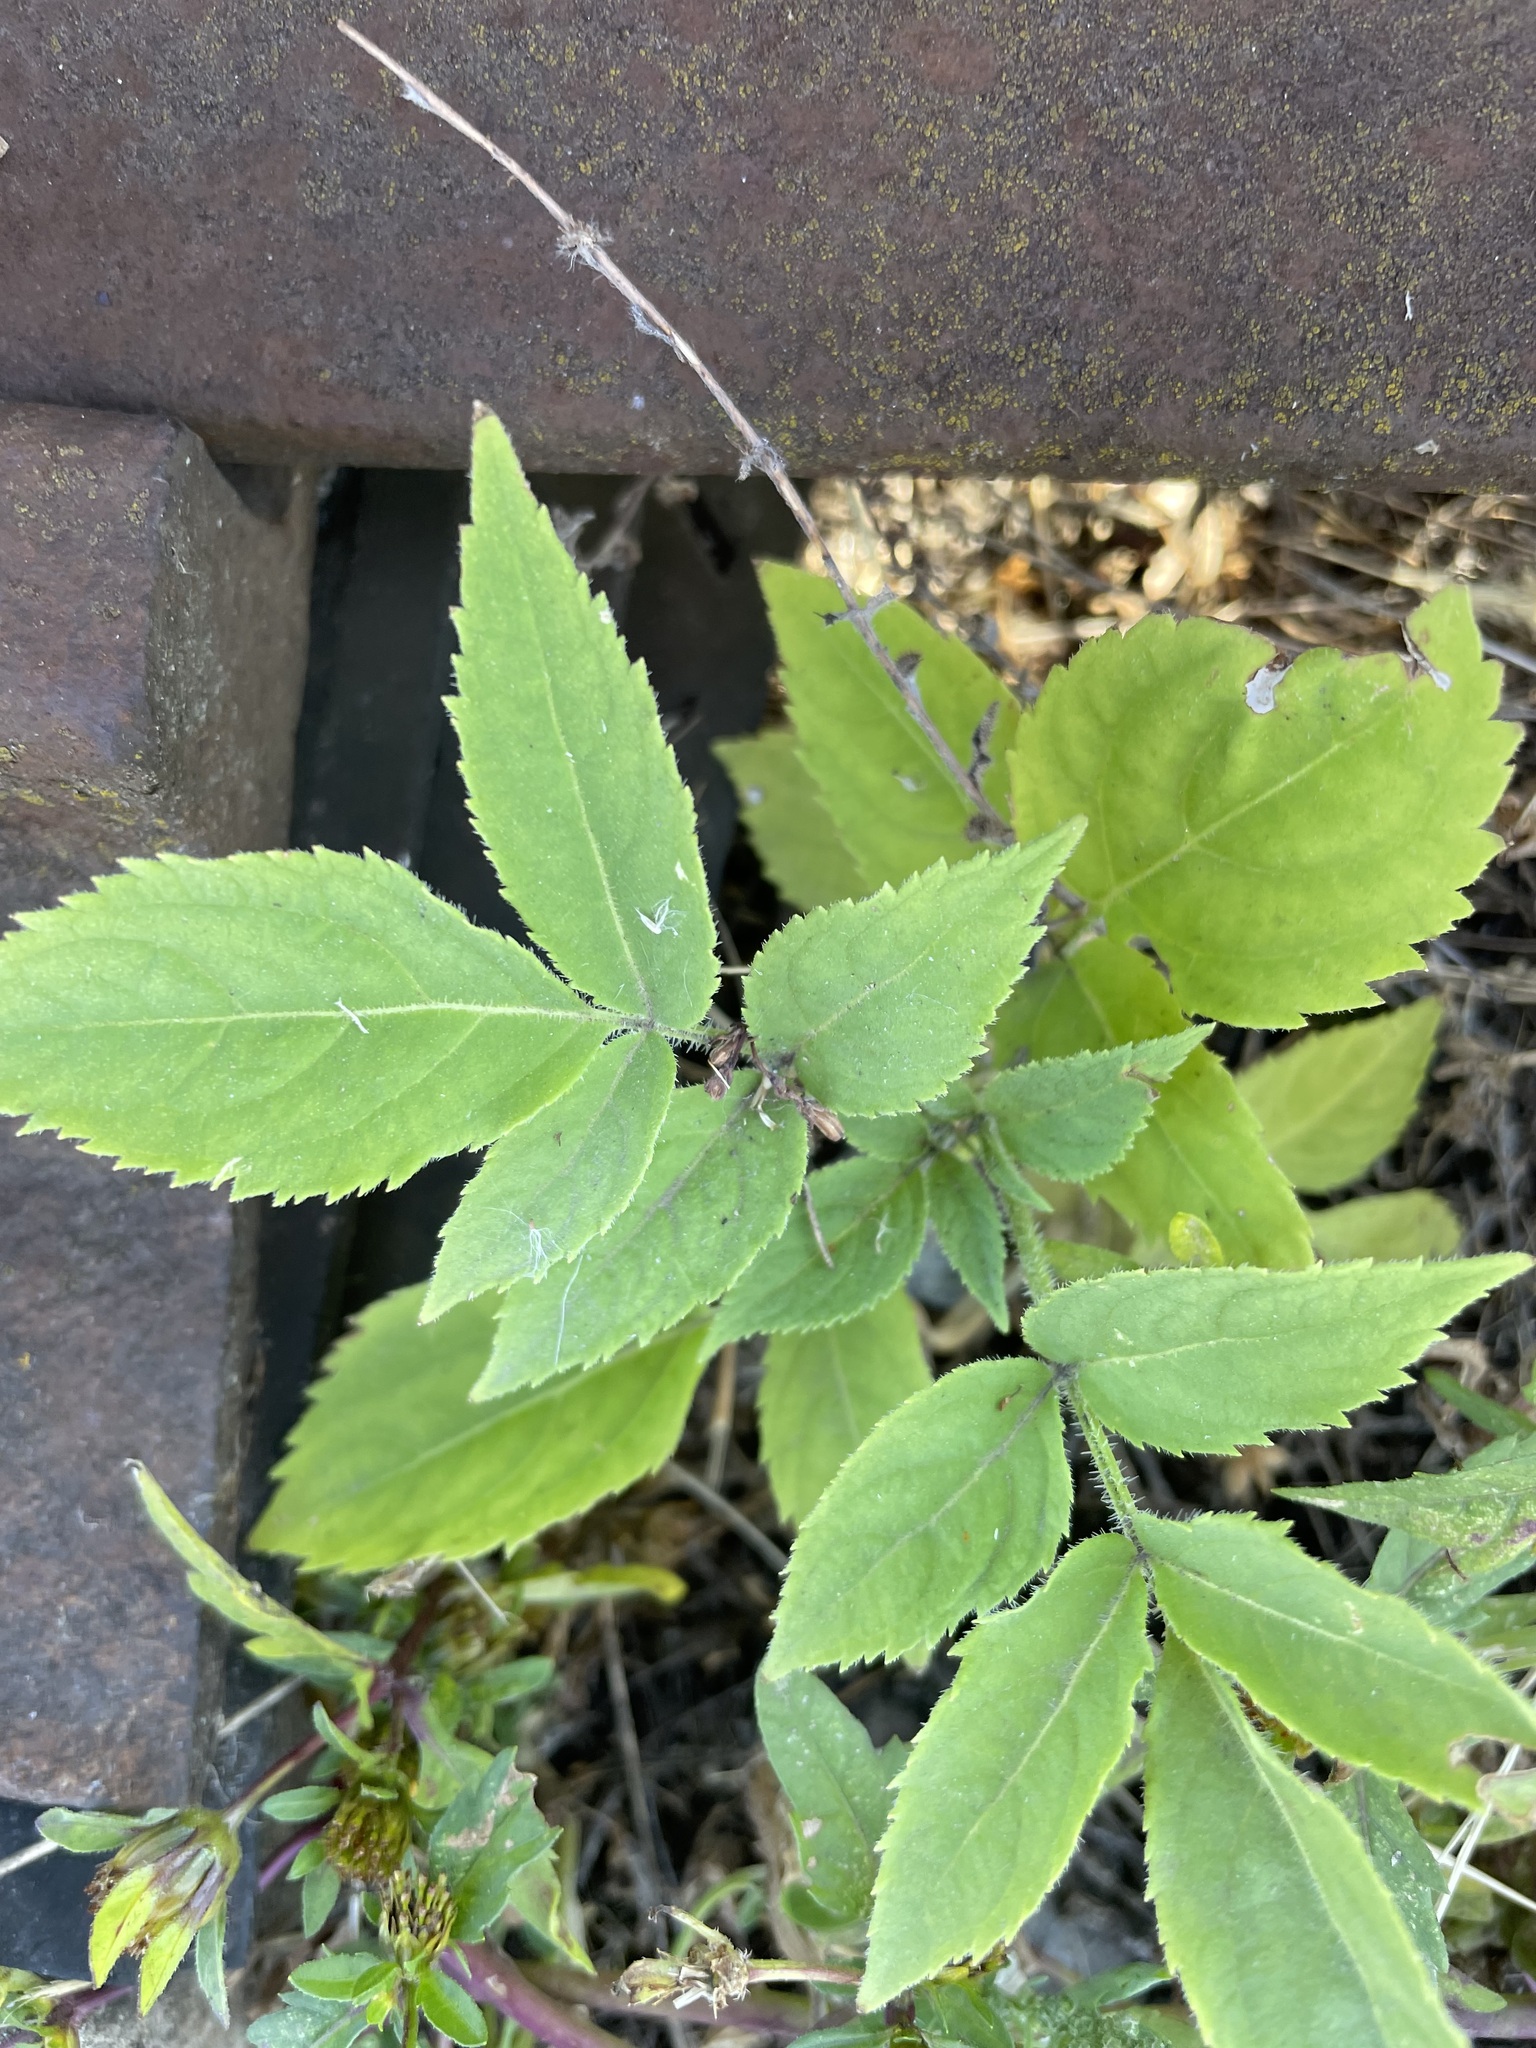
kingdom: Plantae
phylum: Tracheophyta
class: Magnoliopsida
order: Dipsacales
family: Viburnaceae
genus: Sambucus
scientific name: Sambucus racemosa
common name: Red-berried elder
